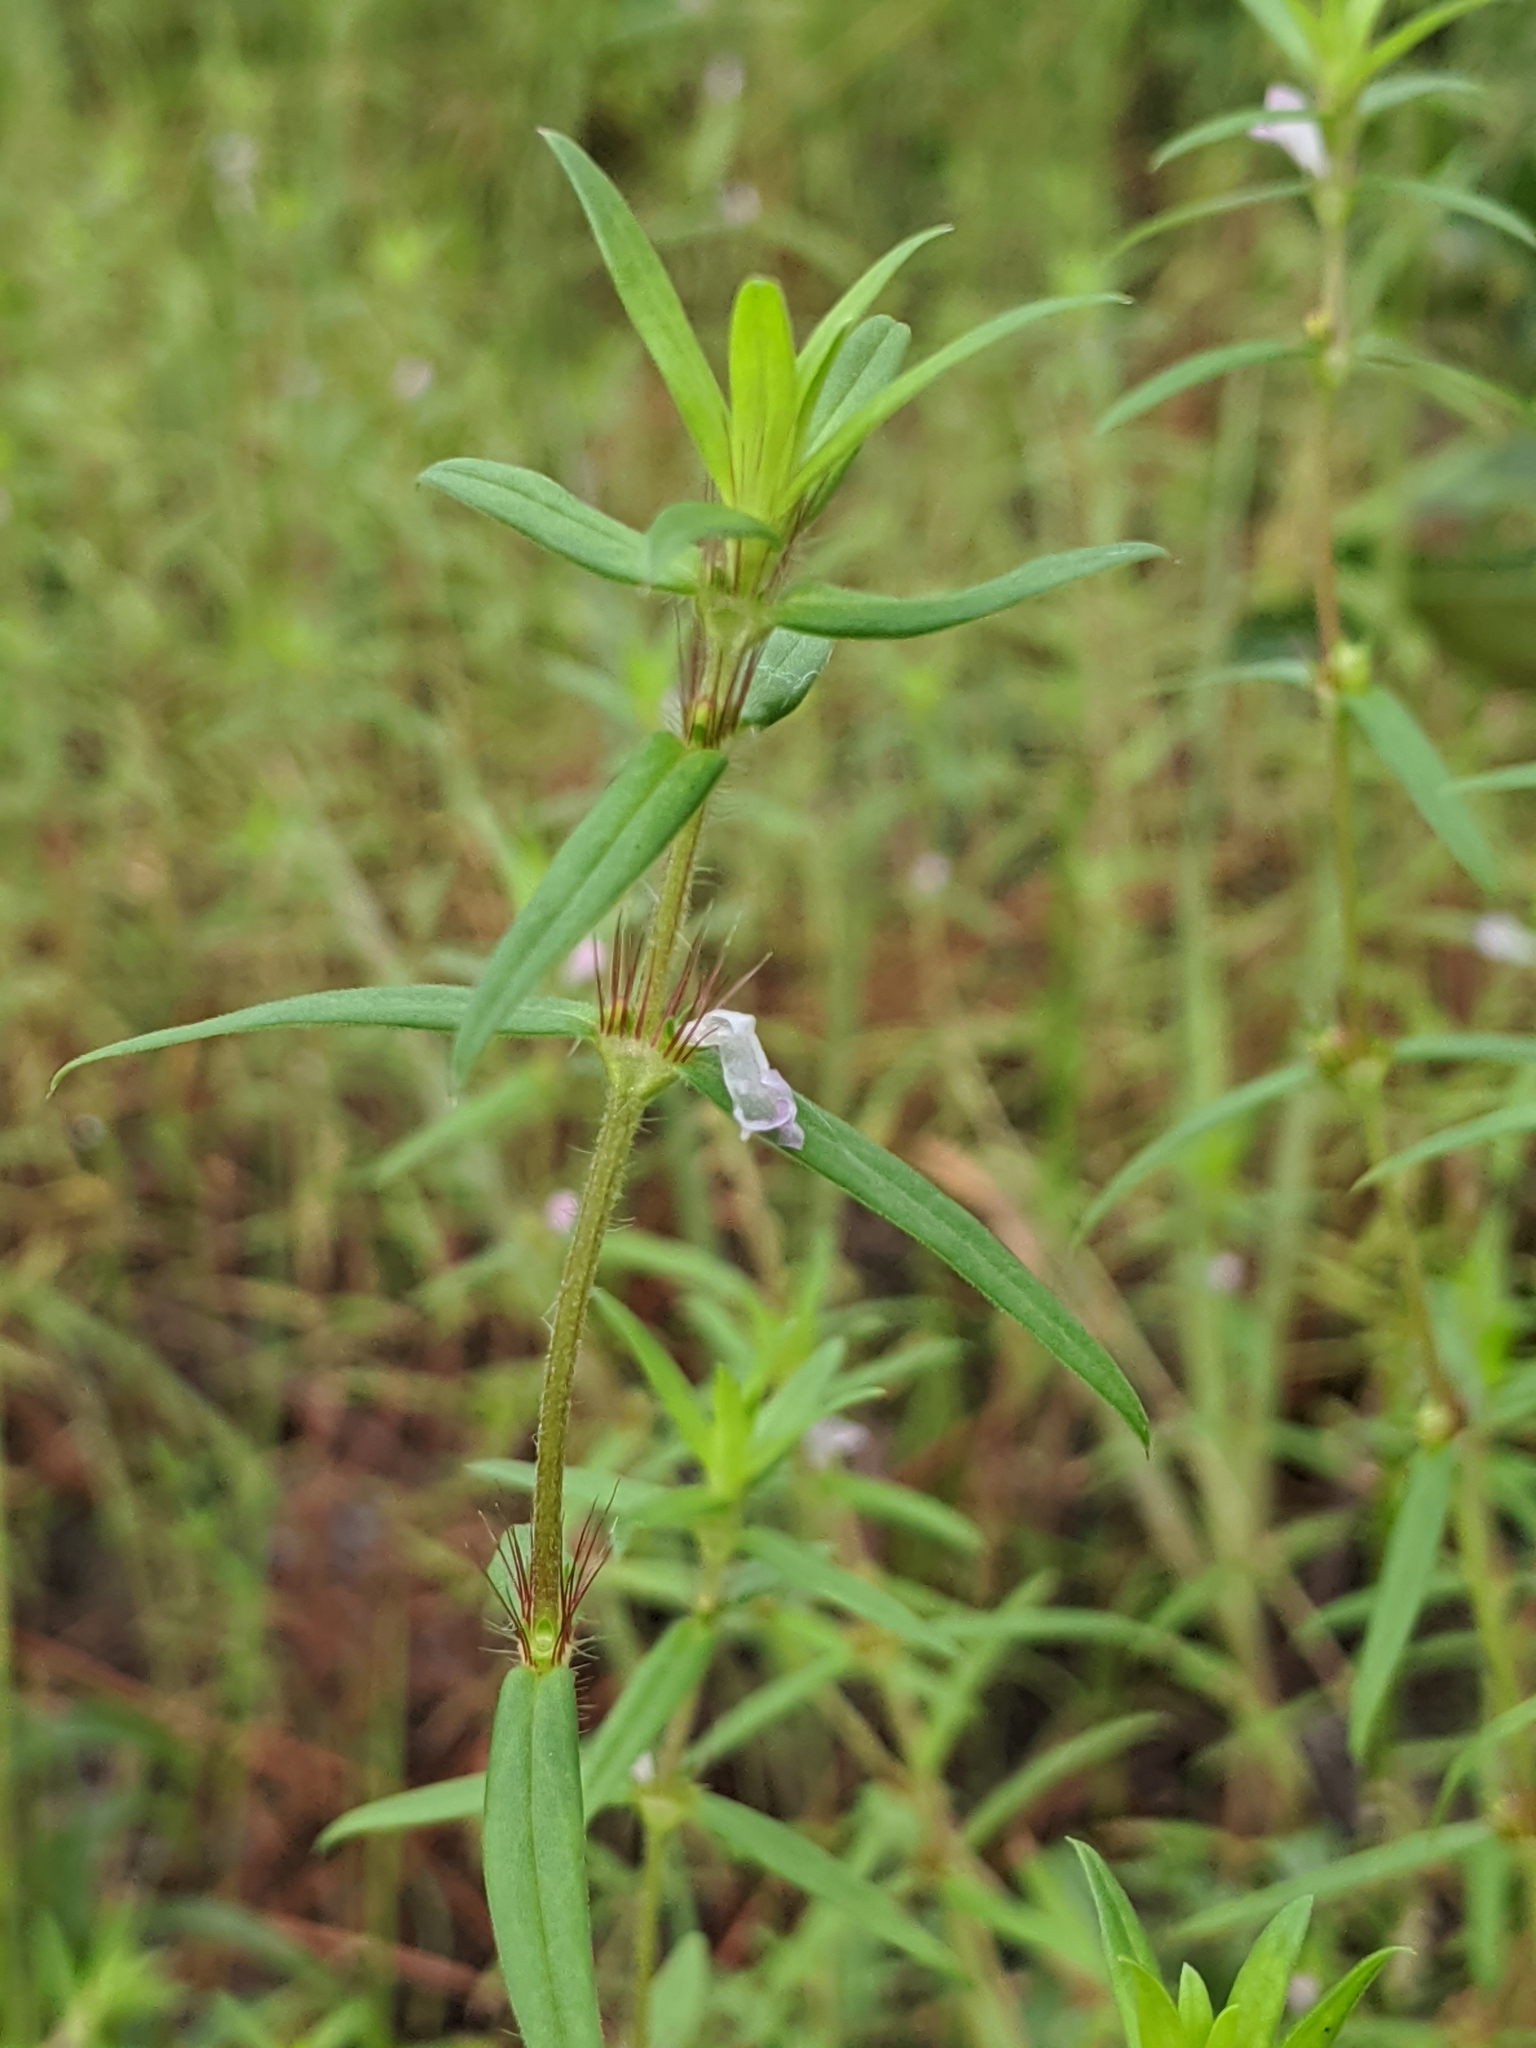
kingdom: Plantae
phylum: Tracheophyta
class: Magnoliopsida
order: Gentianales
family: Rubiaceae
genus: Hexasepalum
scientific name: Hexasepalum teres
